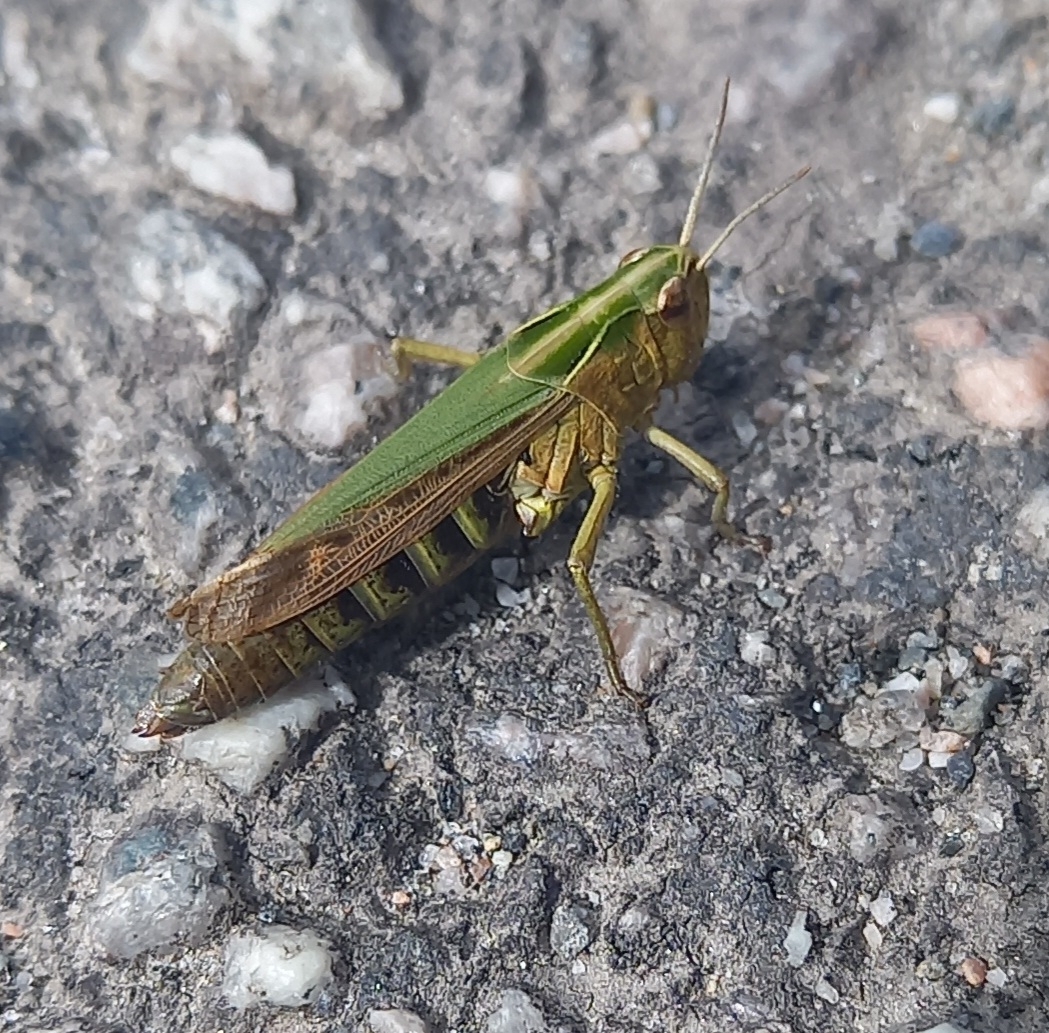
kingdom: Animalia
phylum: Arthropoda
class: Insecta
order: Orthoptera
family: Acrididae
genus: Omocestus
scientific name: Omocestus viridulus
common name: Common green grasshopper
